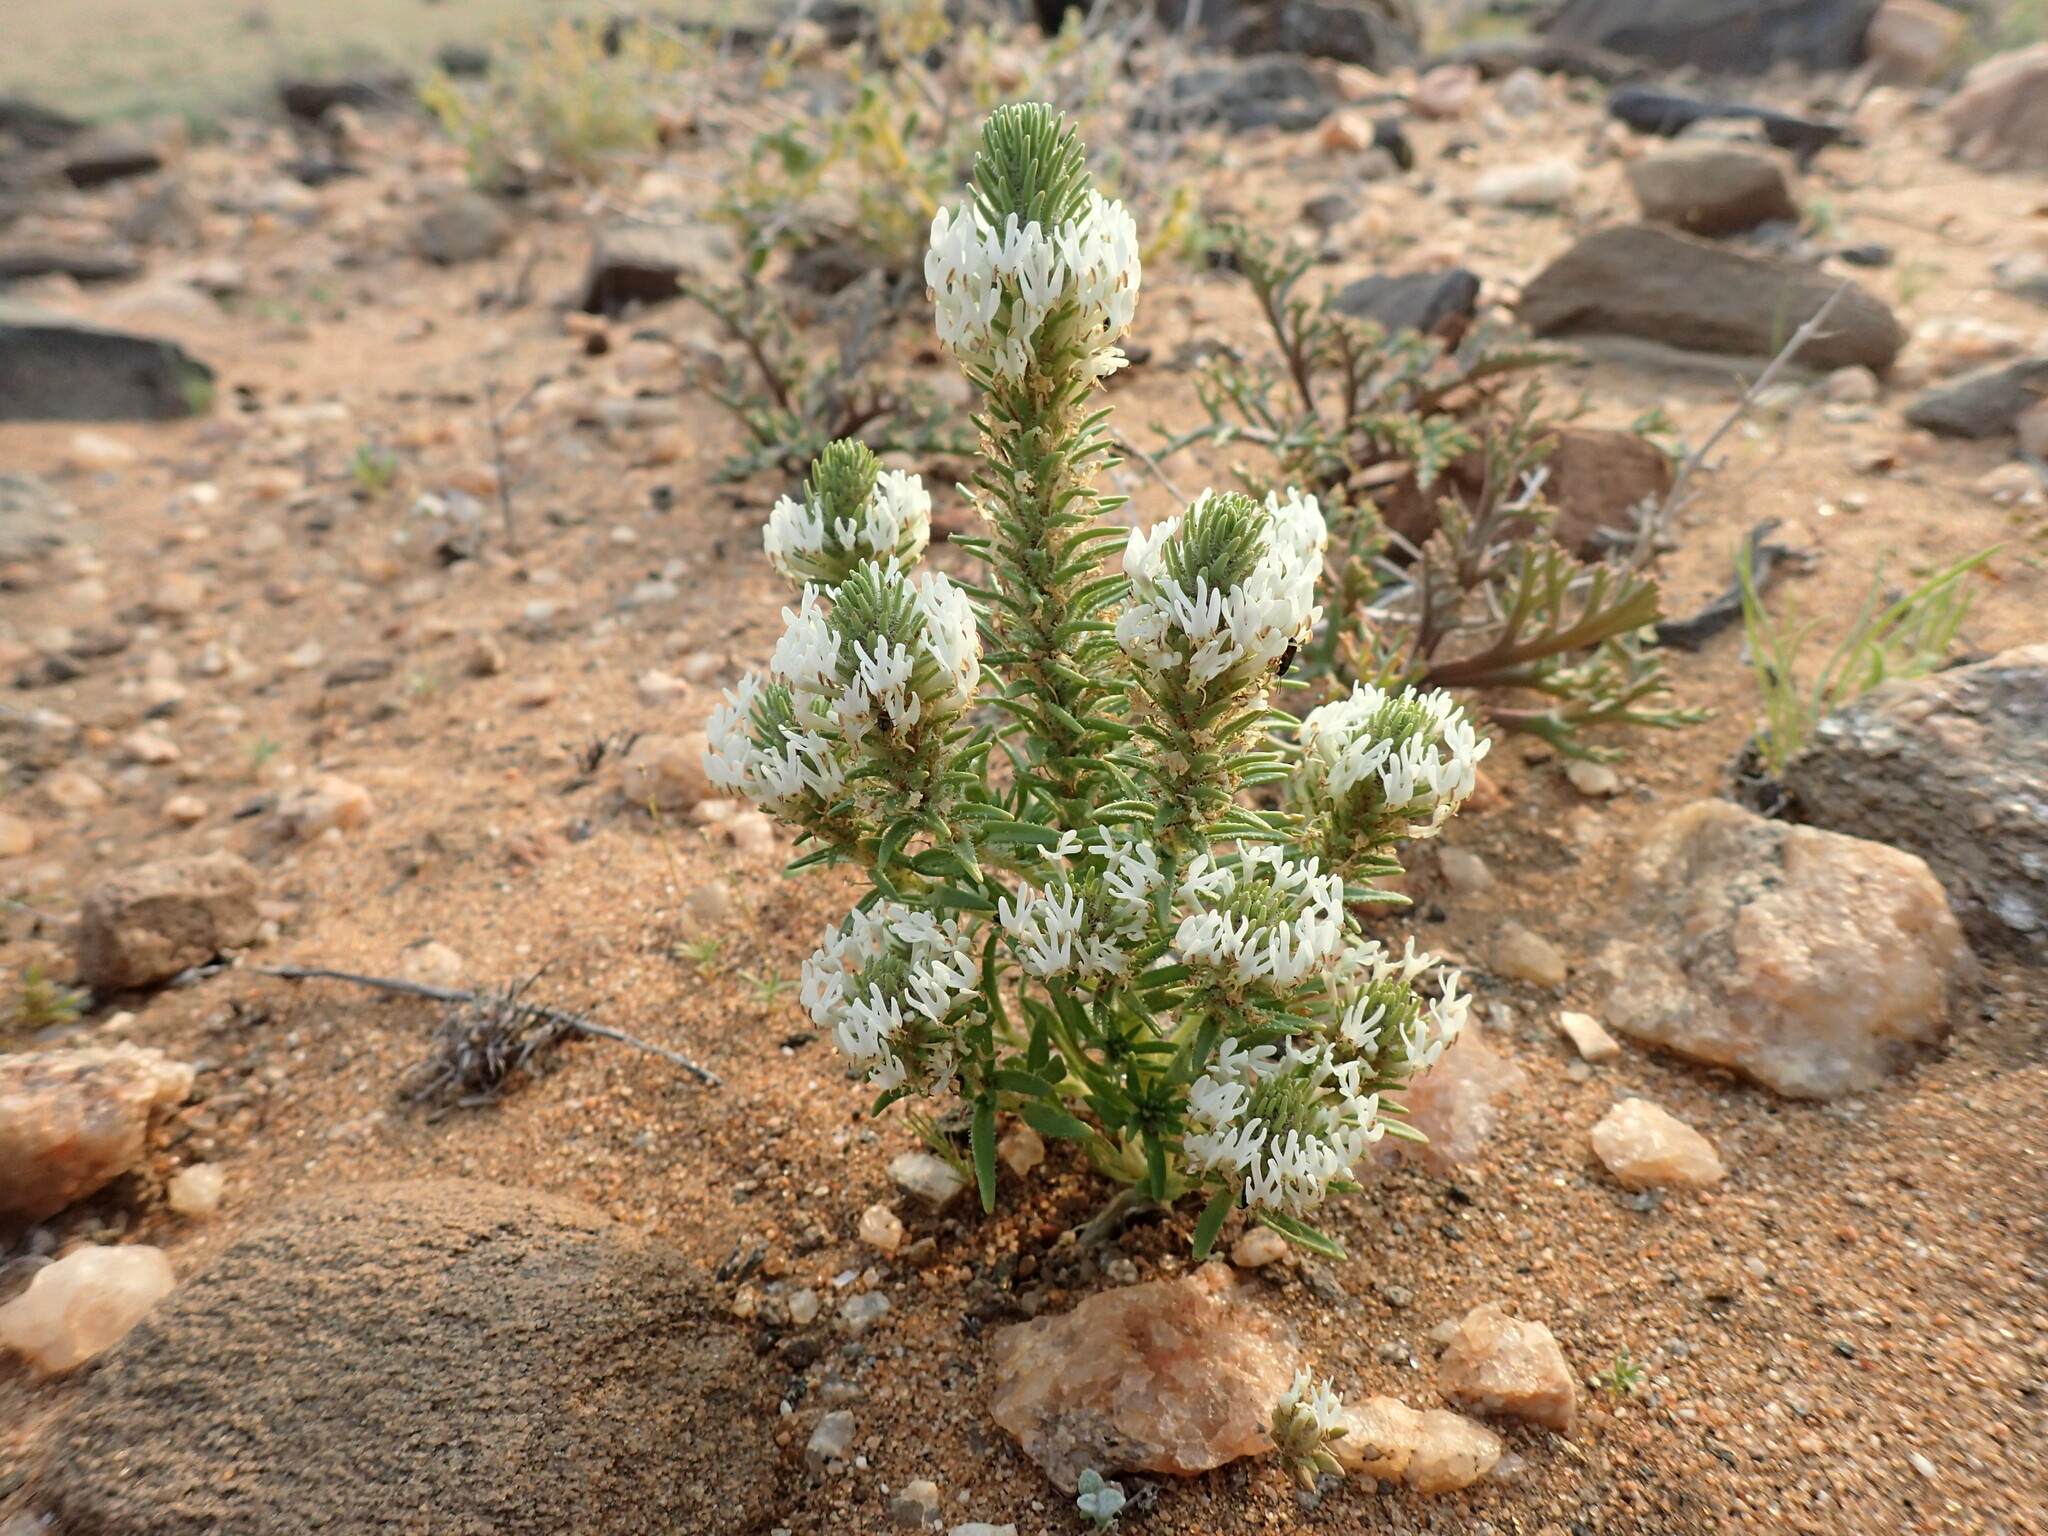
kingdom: Plantae
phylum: Tracheophyta
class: Magnoliopsida
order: Lamiales
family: Scrophulariaceae
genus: Hebenstretia
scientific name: Hebenstretia parviflora
